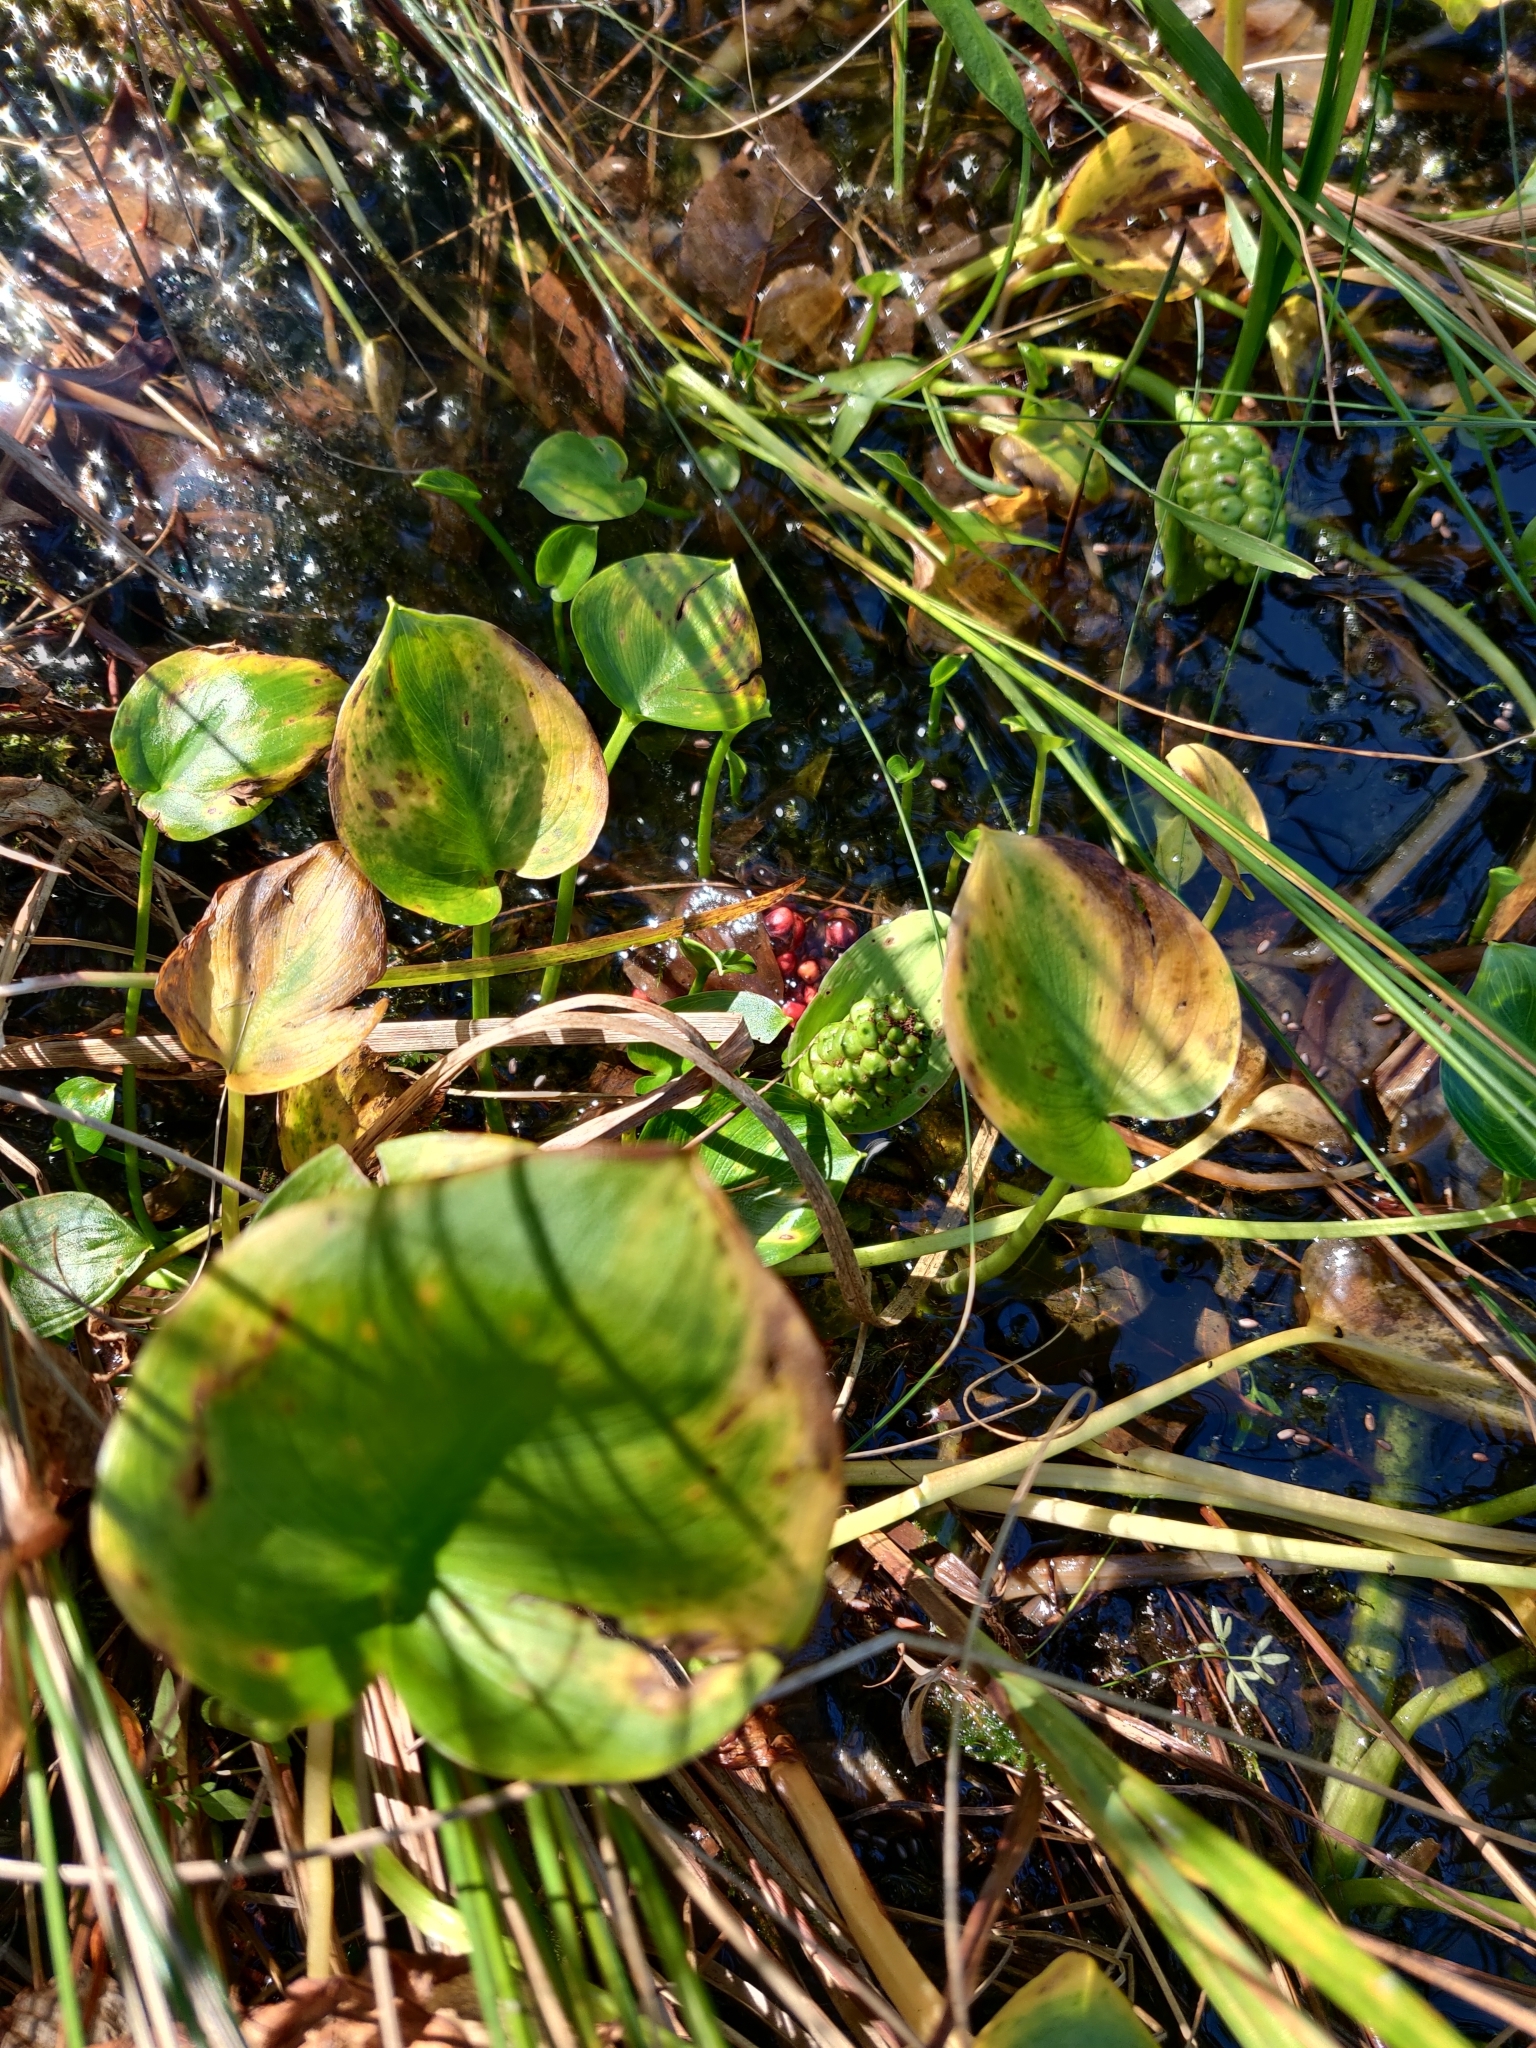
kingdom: Plantae
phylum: Tracheophyta
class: Liliopsida
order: Alismatales
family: Araceae
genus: Calla
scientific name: Calla palustris
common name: Bog arum
